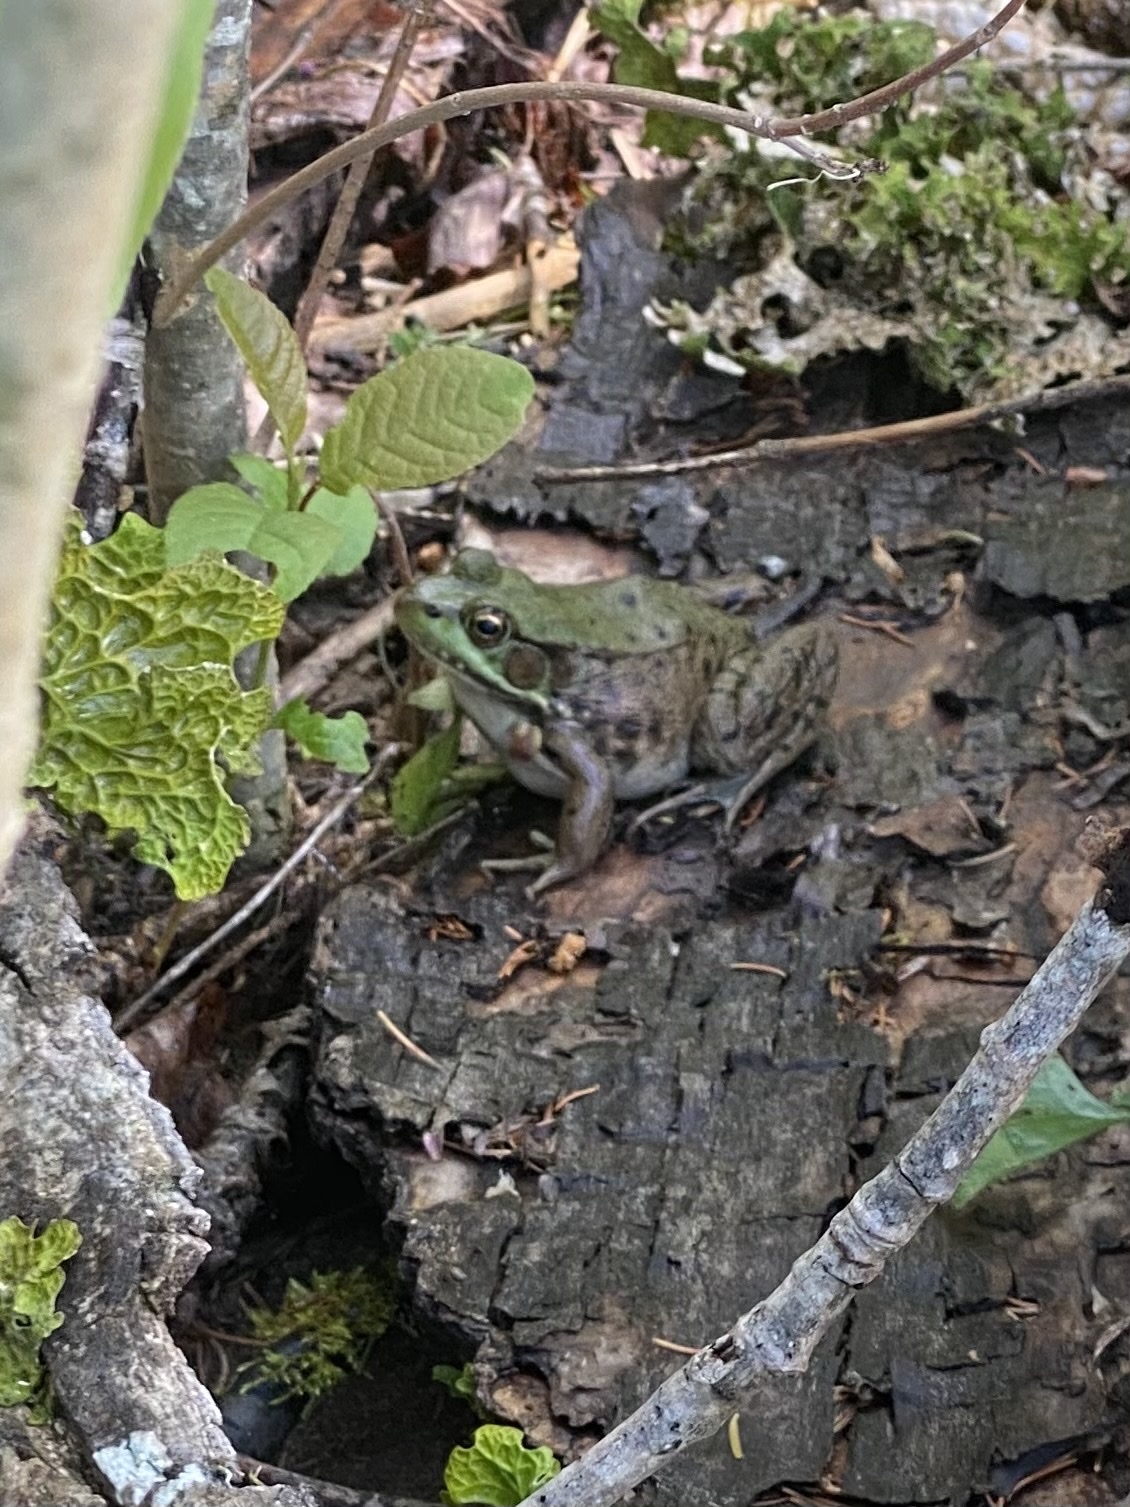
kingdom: Animalia
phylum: Chordata
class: Amphibia
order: Anura
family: Ranidae
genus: Lithobates
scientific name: Lithobates clamitans
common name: Green frog
